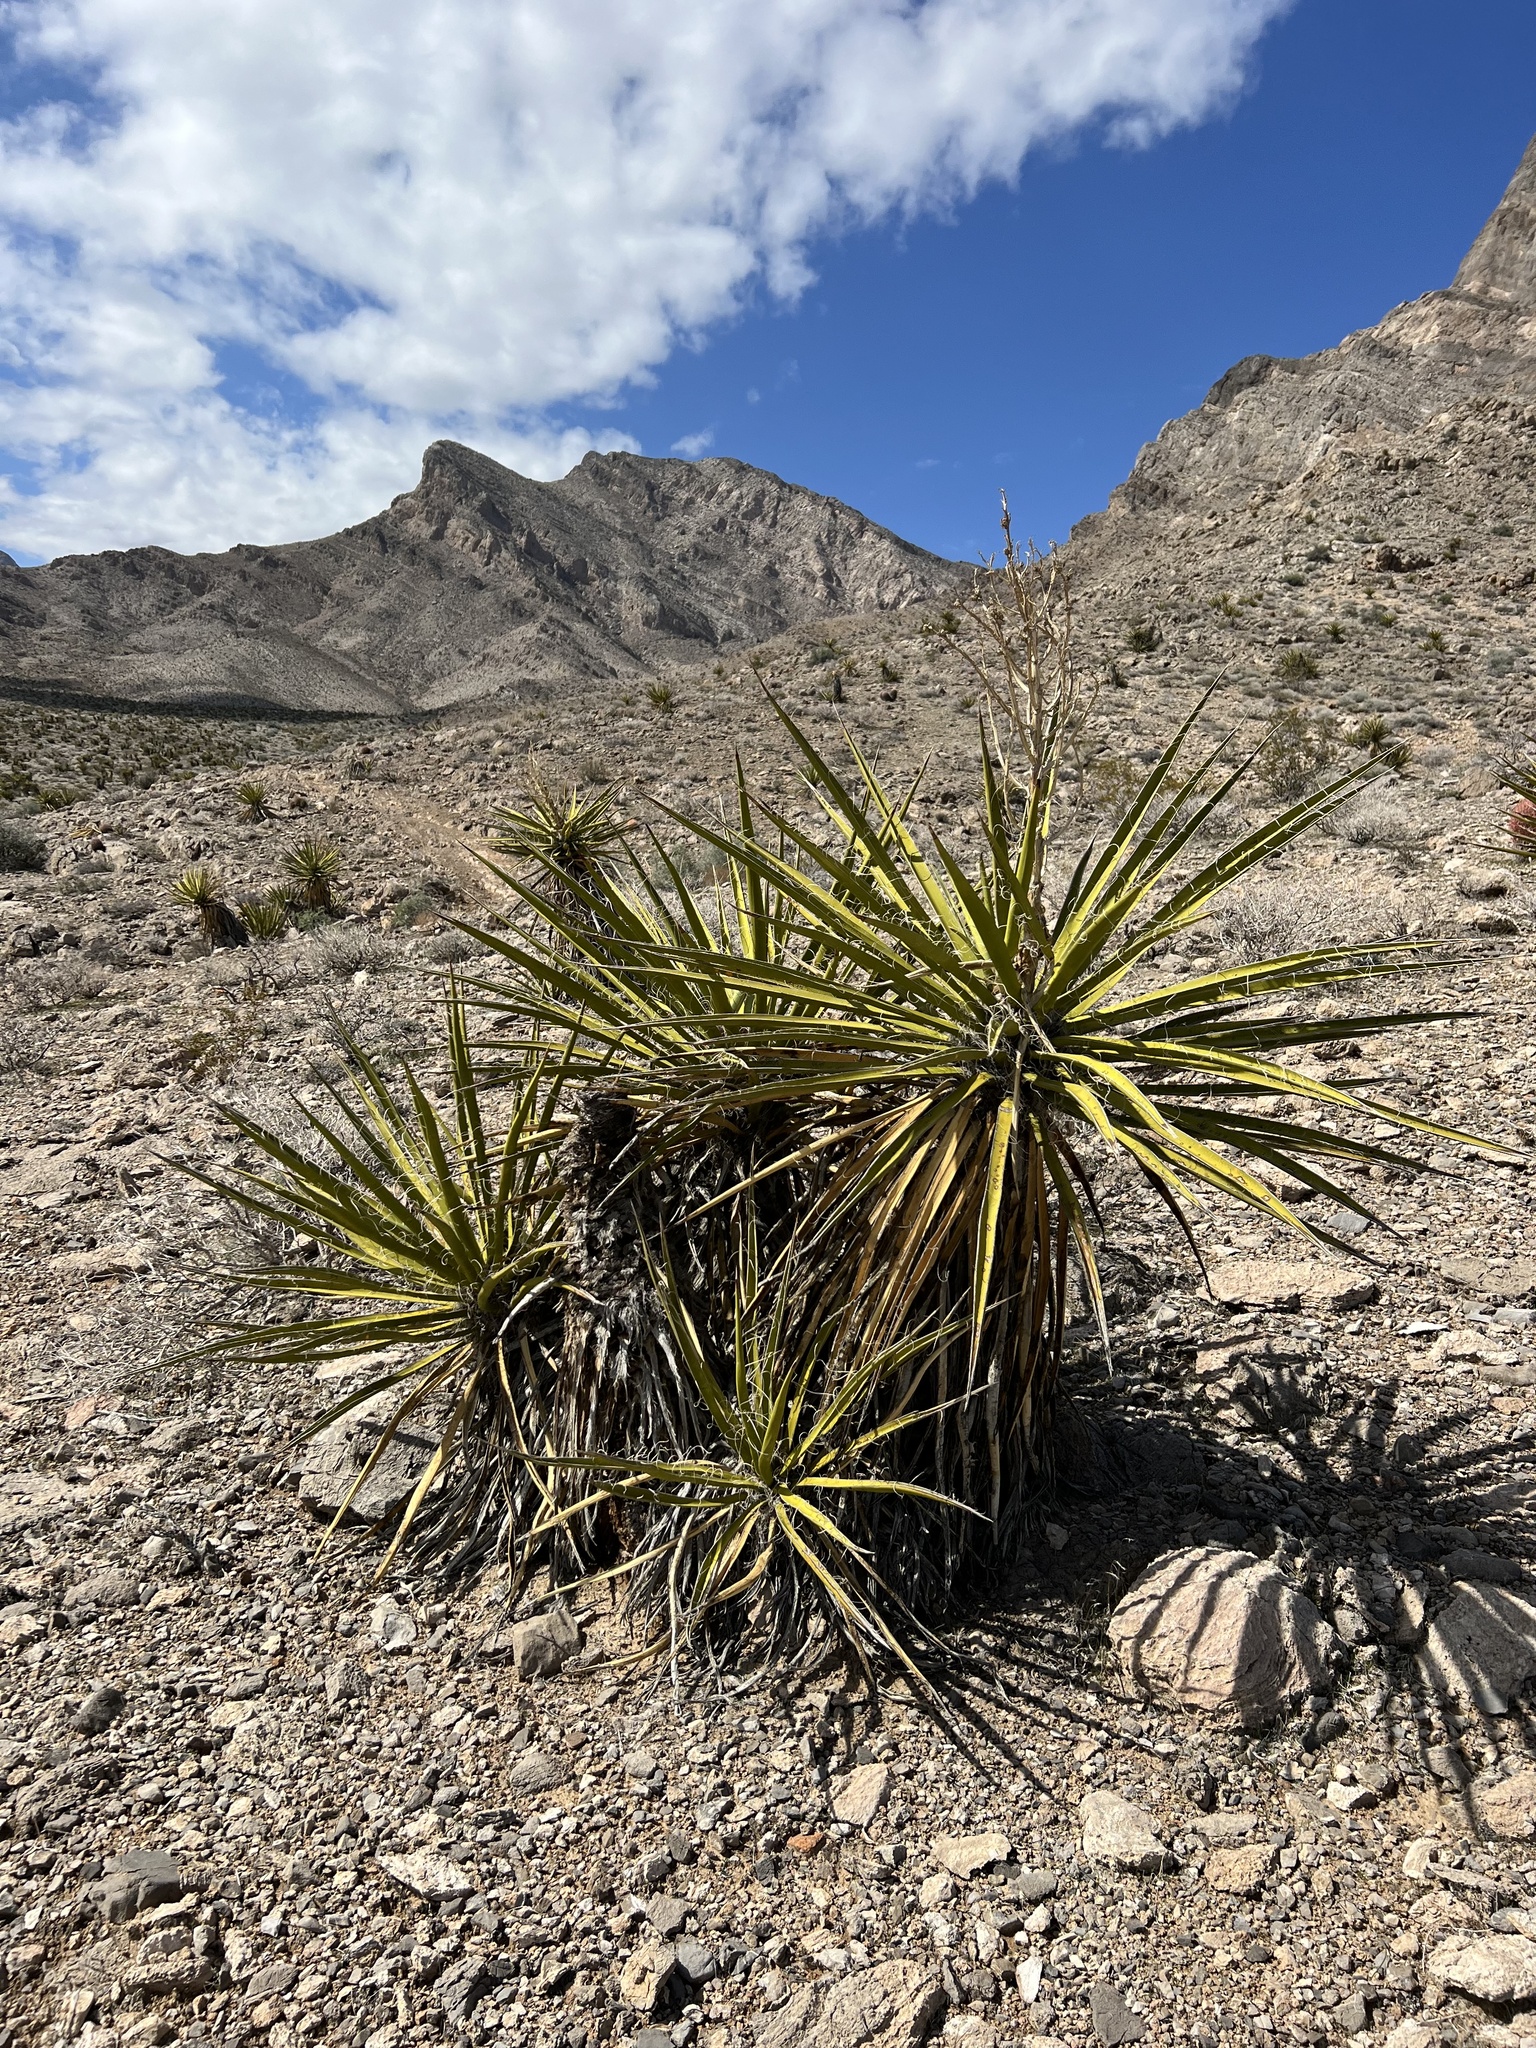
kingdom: Plantae
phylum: Tracheophyta
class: Liliopsida
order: Asparagales
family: Asparagaceae
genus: Yucca
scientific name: Yucca schidigera
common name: Mojave yucca
